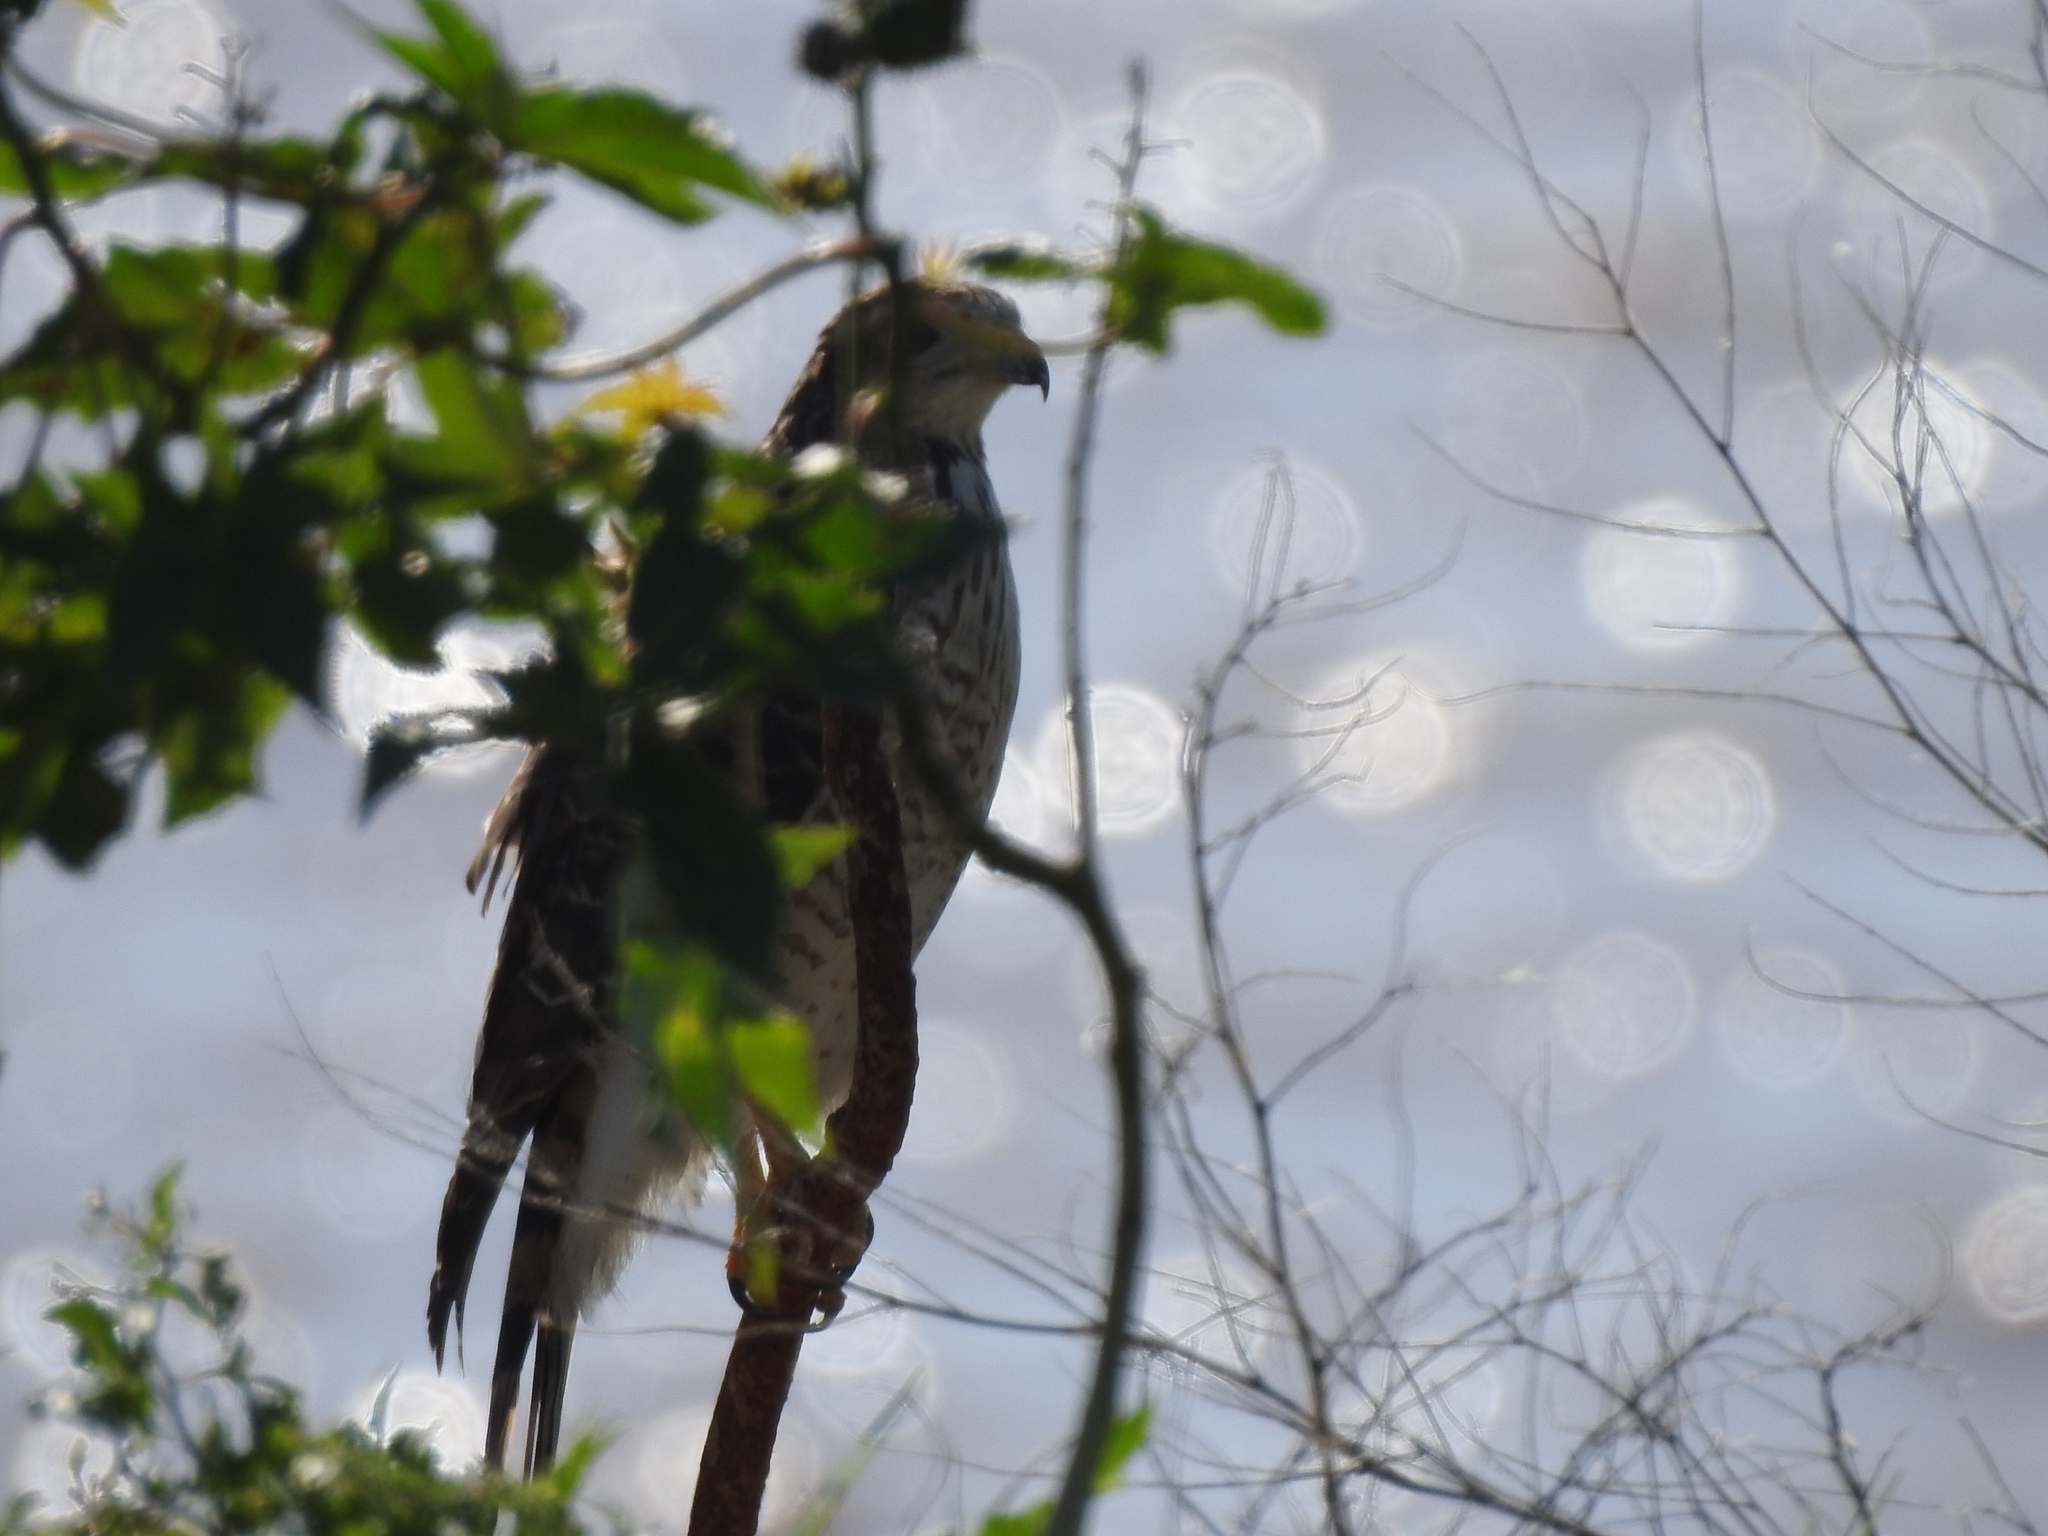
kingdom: Animalia
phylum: Chordata
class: Aves
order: Accipitriformes
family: Accipitridae
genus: Rupornis
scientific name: Rupornis magnirostris
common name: Roadside hawk
